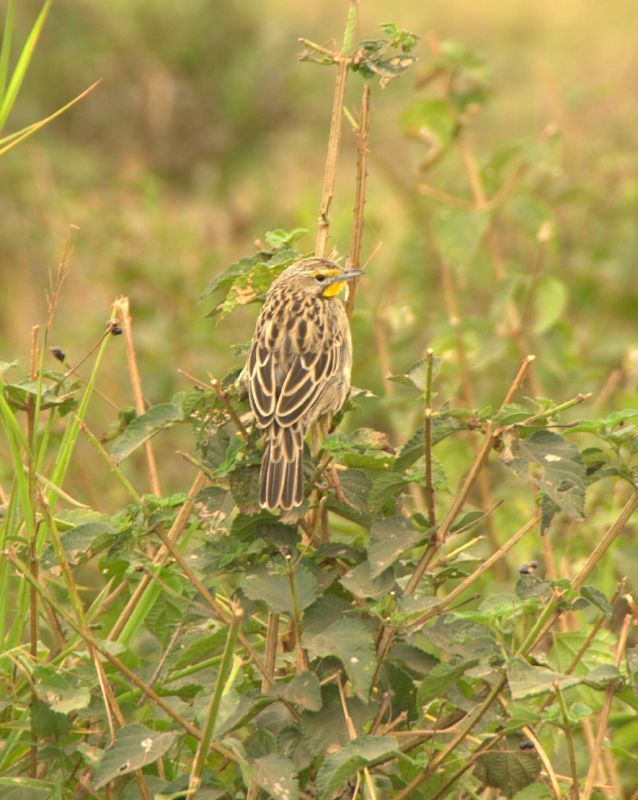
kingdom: Animalia
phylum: Chordata
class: Aves
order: Passeriformes
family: Motacillidae
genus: Macronyx
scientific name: Macronyx croceus
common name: Yellow-throated longclaw
